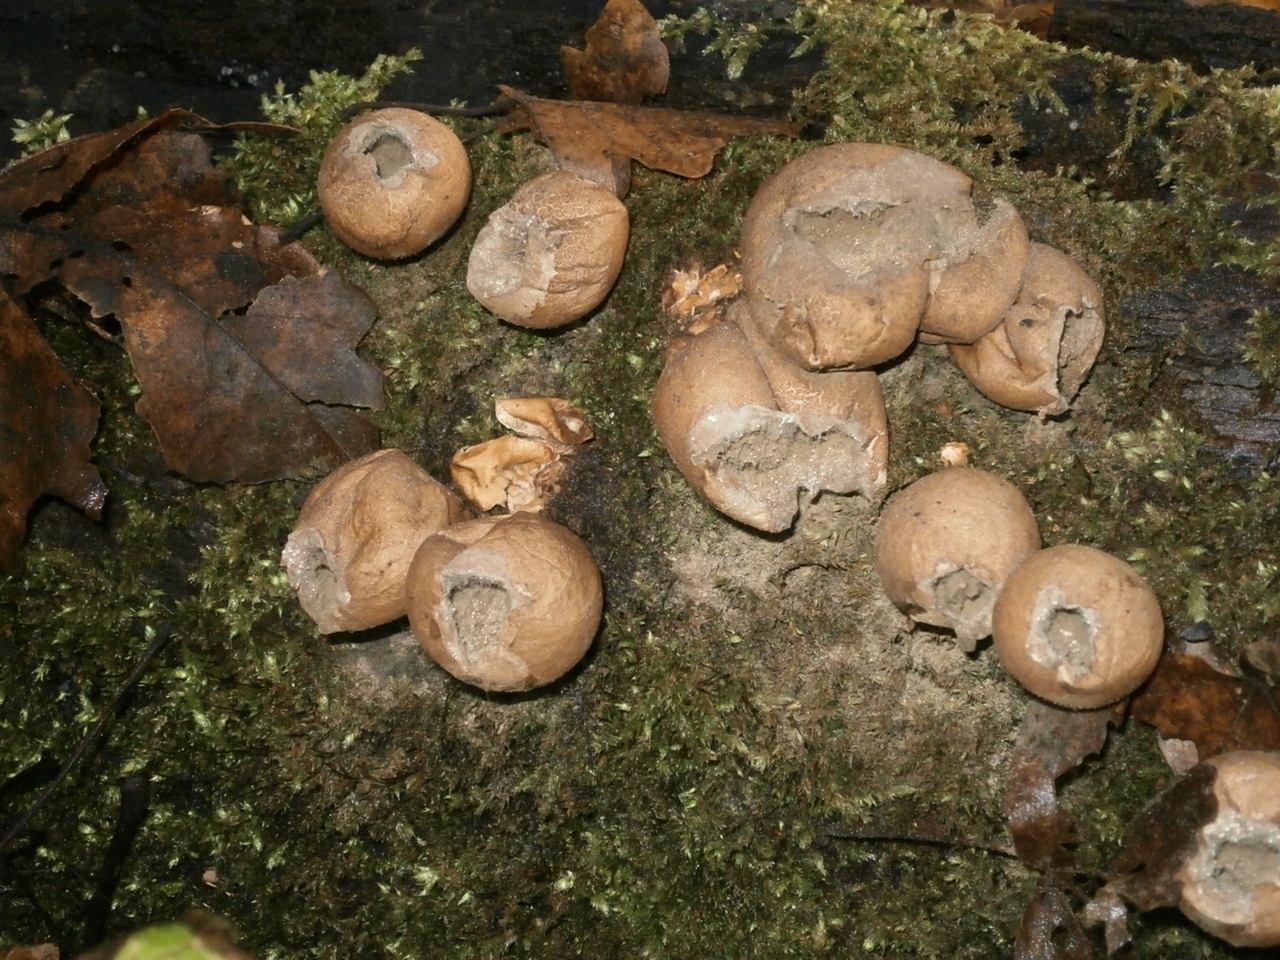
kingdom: Fungi
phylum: Basidiomycota
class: Agaricomycetes
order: Agaricales
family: Lycoperdaceae
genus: Apioperdon
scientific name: Apioperdon pyriforme
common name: Pear-shaped puffball
